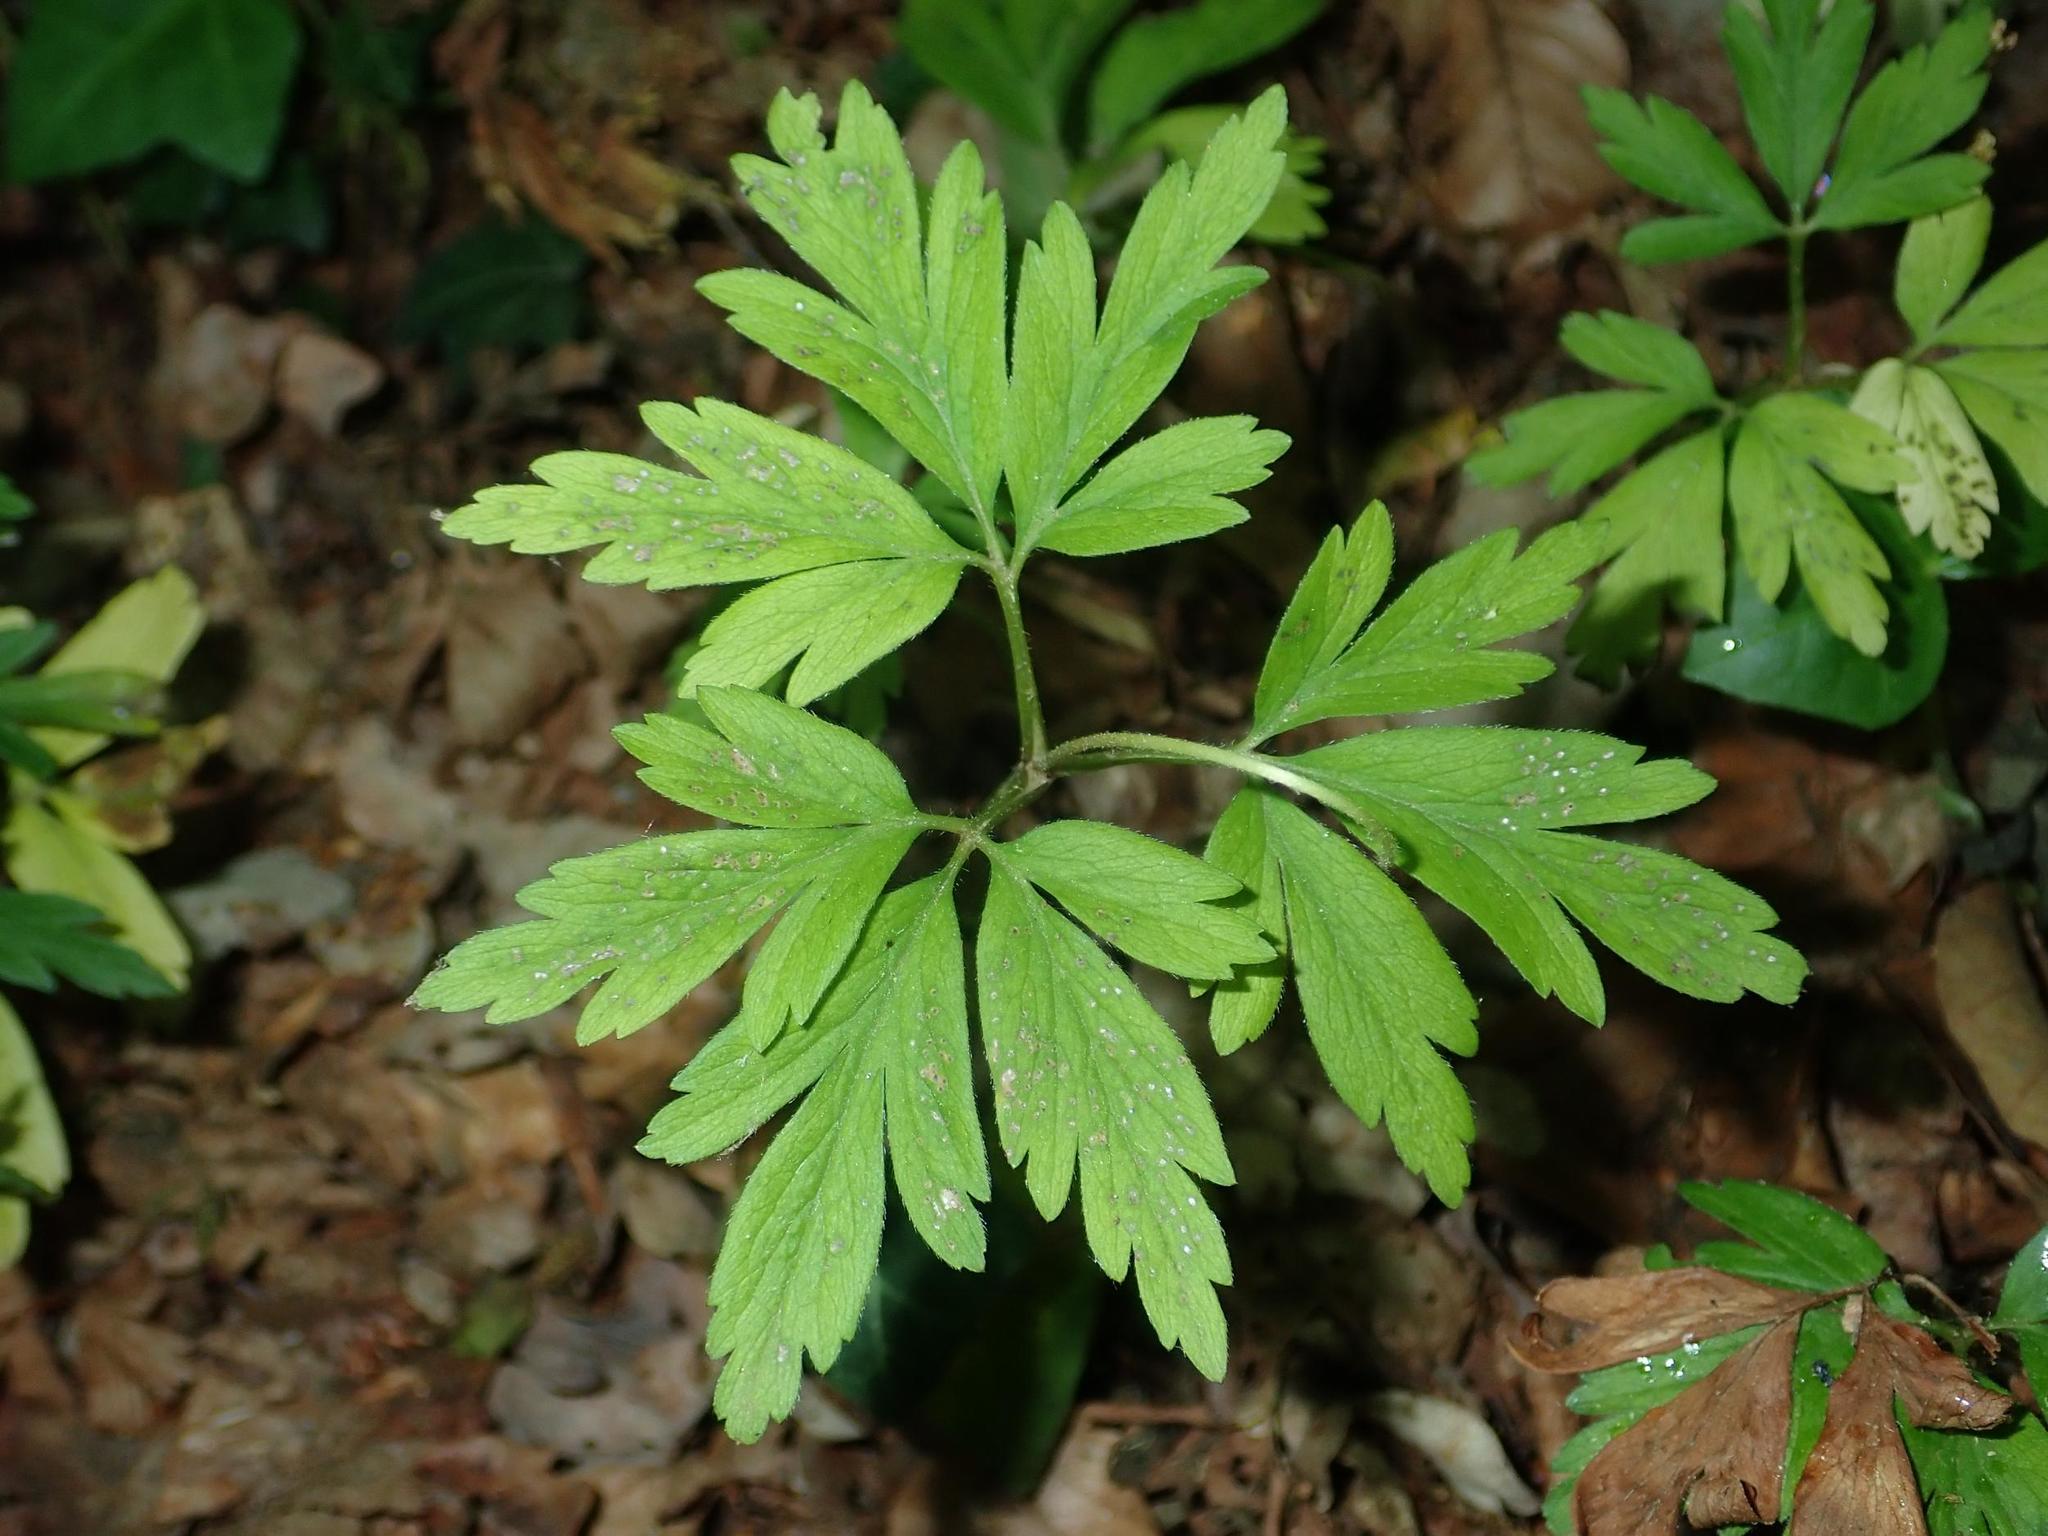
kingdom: Plantae
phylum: Tracheophyta
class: Magnoliopsida
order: Ranunculales
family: Ranunculaceae
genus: Anemone
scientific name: Anemone nemorosa
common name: Wood anemone
